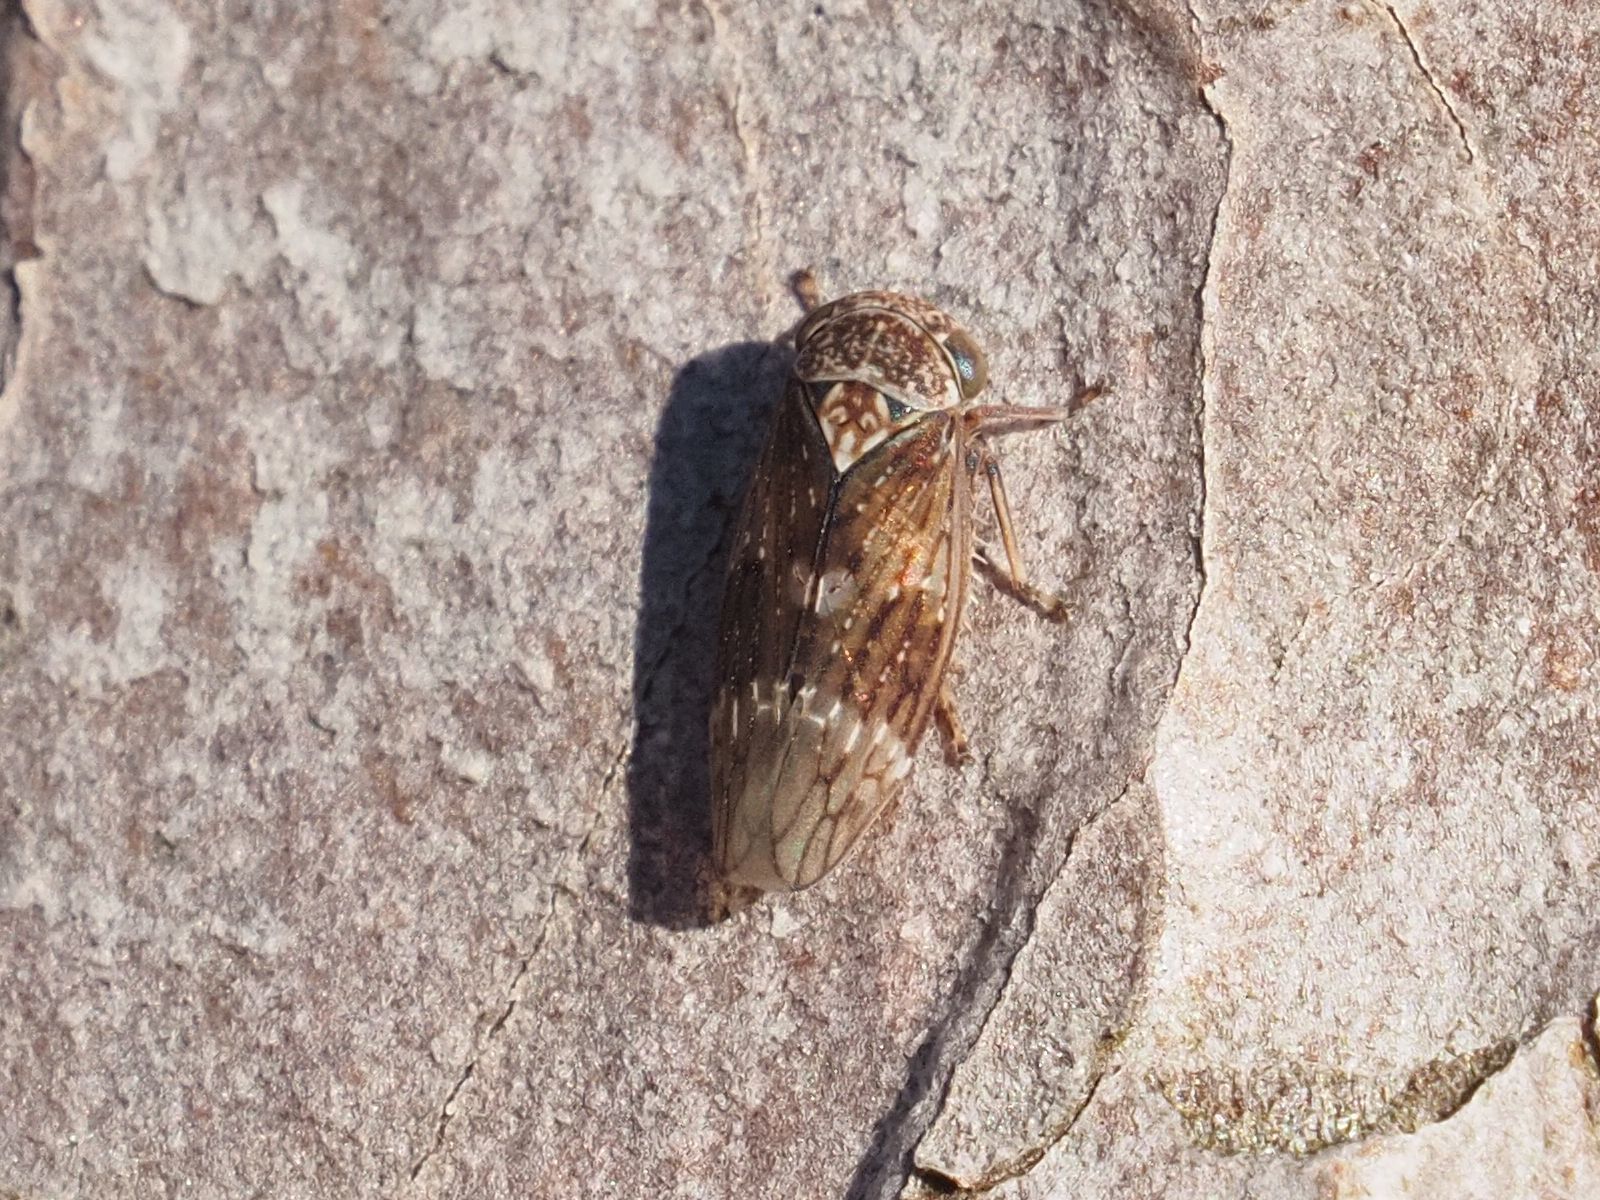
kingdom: Animalia
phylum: Arthropoda
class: Insecta
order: Hemiptera
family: Cicadellidae
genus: Acericerus
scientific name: Acericerus ribauti
